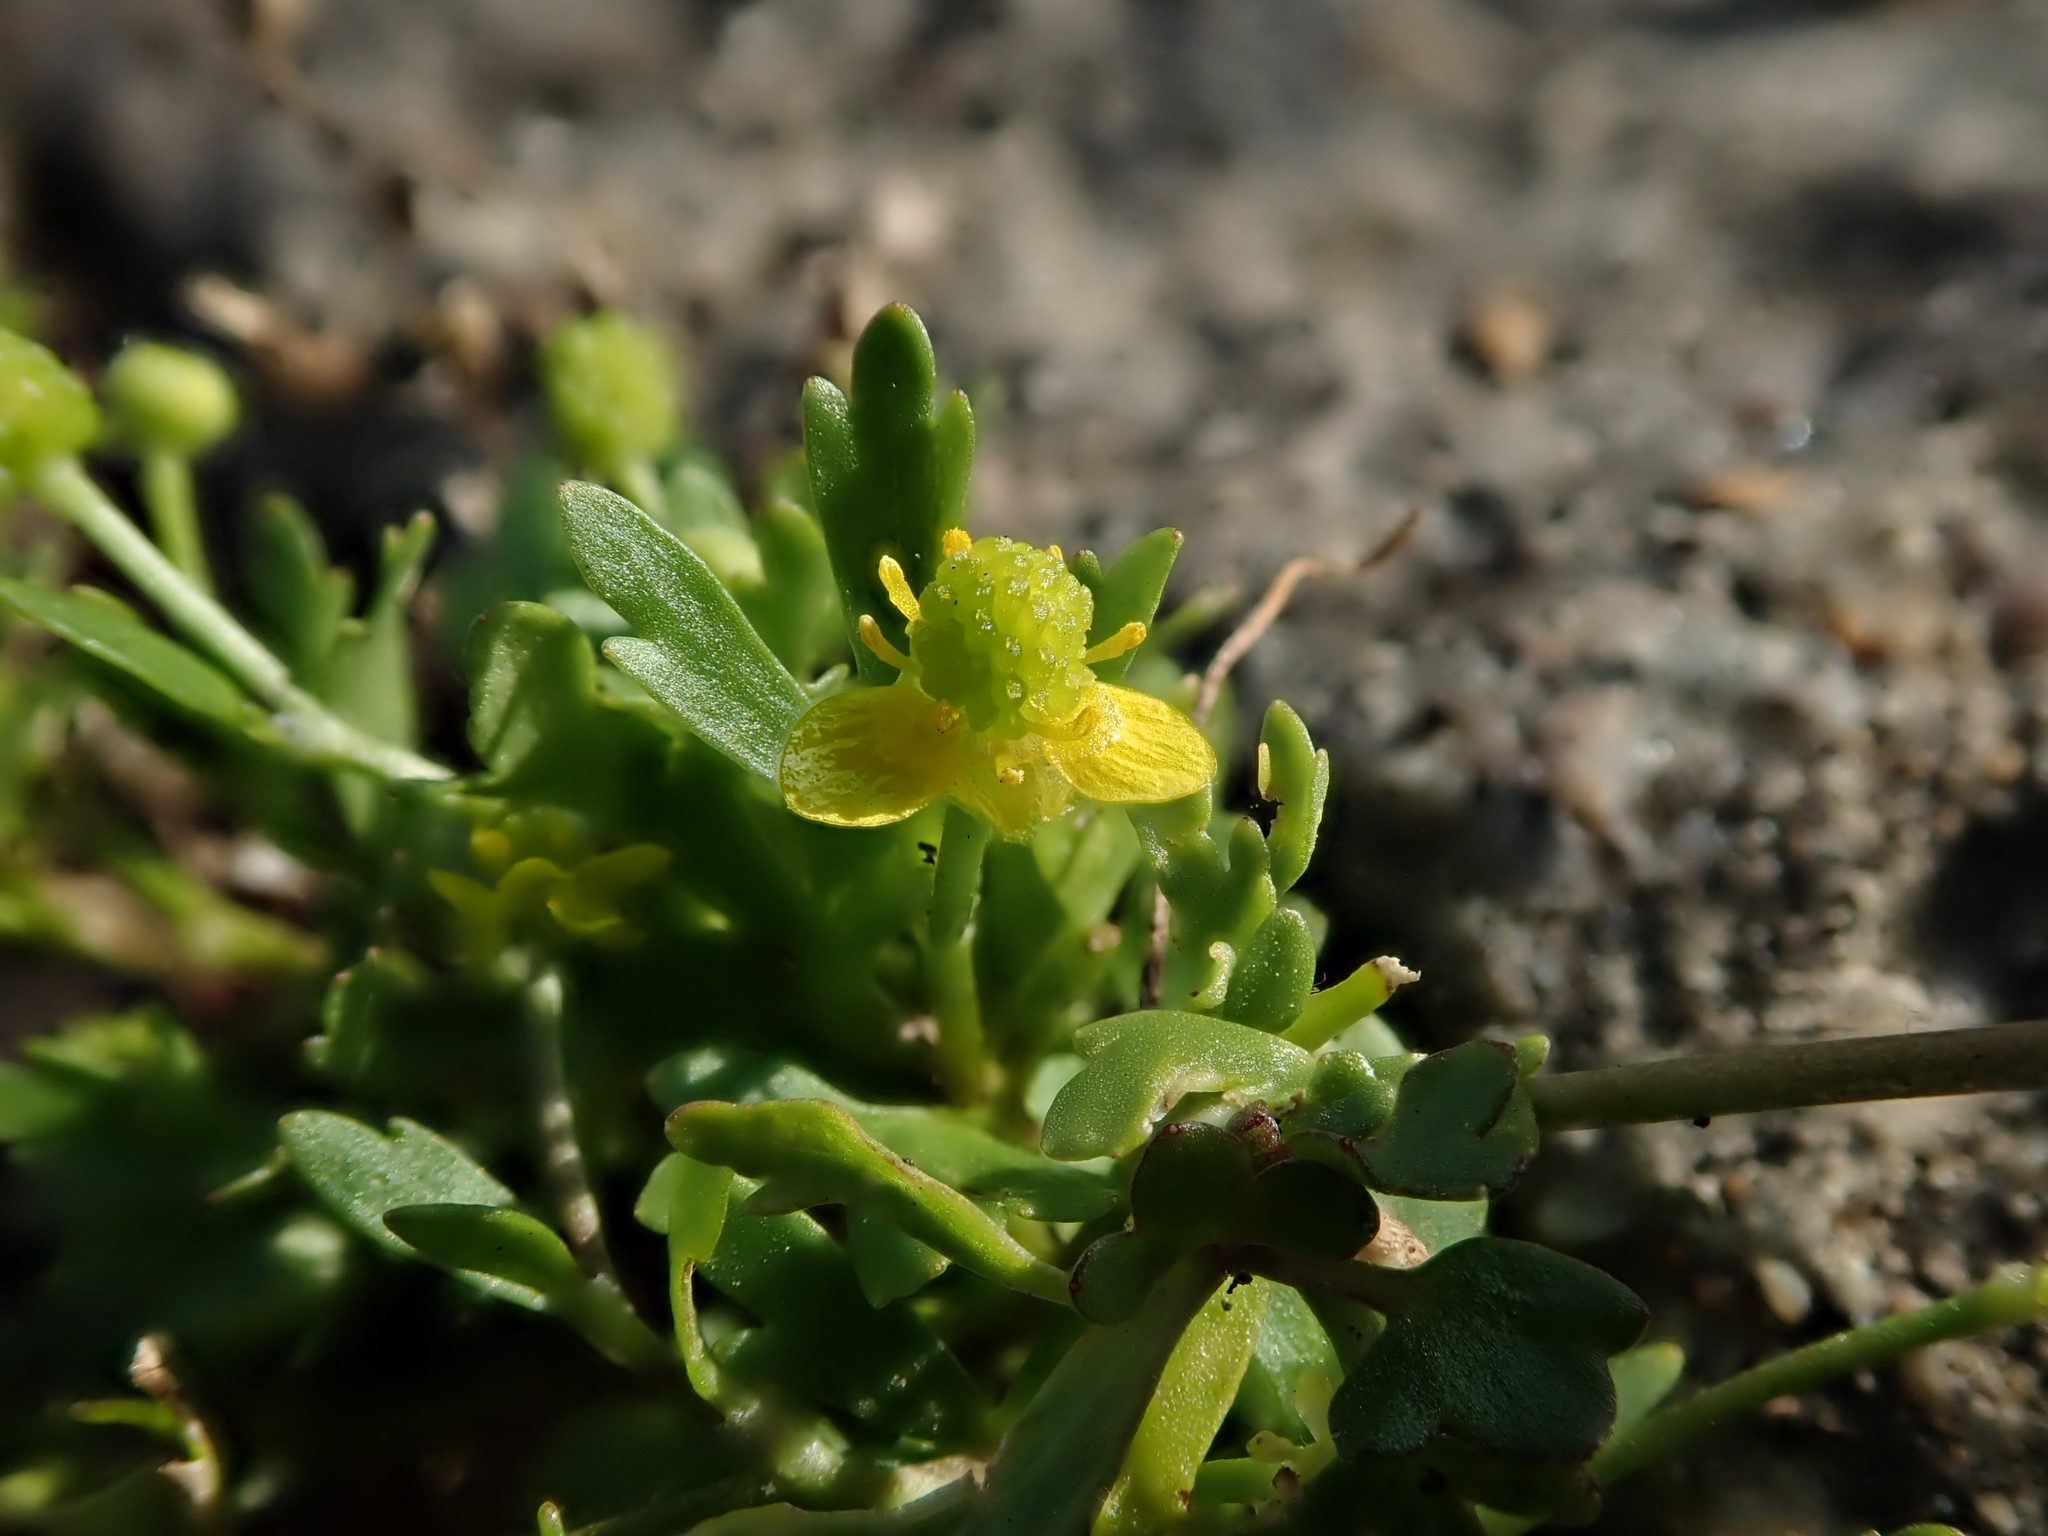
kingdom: Plantae
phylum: Tracheophyta
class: Magnoliopsida
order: Ranunculales
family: Ranunculaceae
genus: Ranunculus
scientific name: Ranunculus sceleratus
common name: Celery-leaved buttercup
